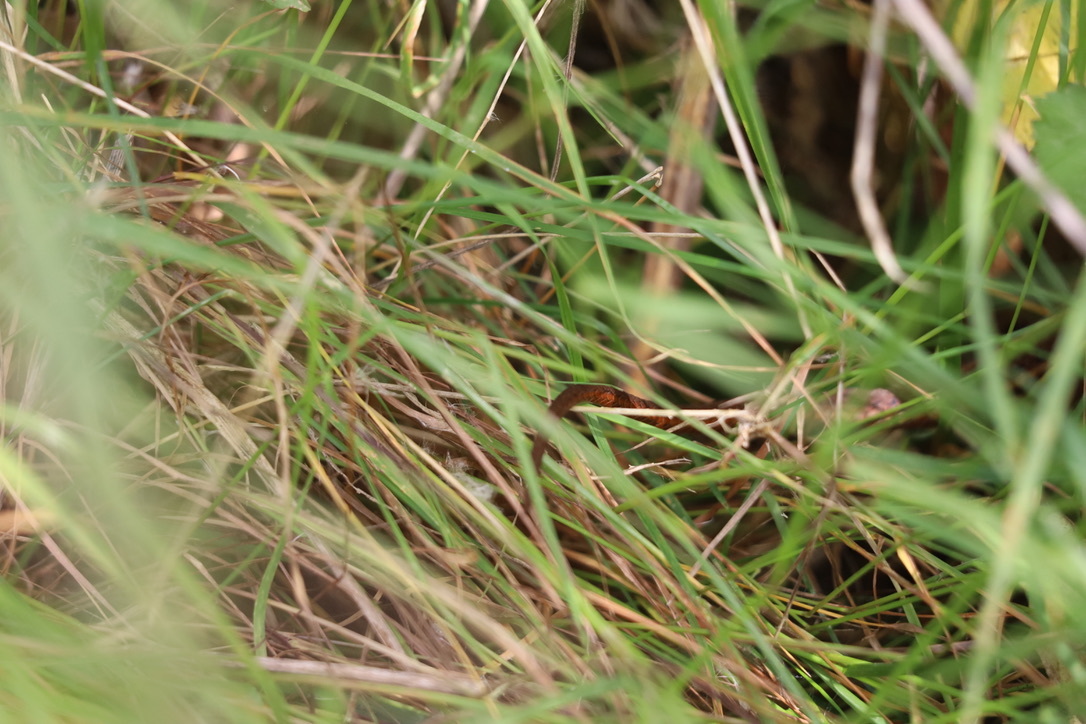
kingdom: Animalia
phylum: Chordata
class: Squamata
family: Colubridae
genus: Thamnophis
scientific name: Thamnophis ordinoides
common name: Northwestern garter snake
